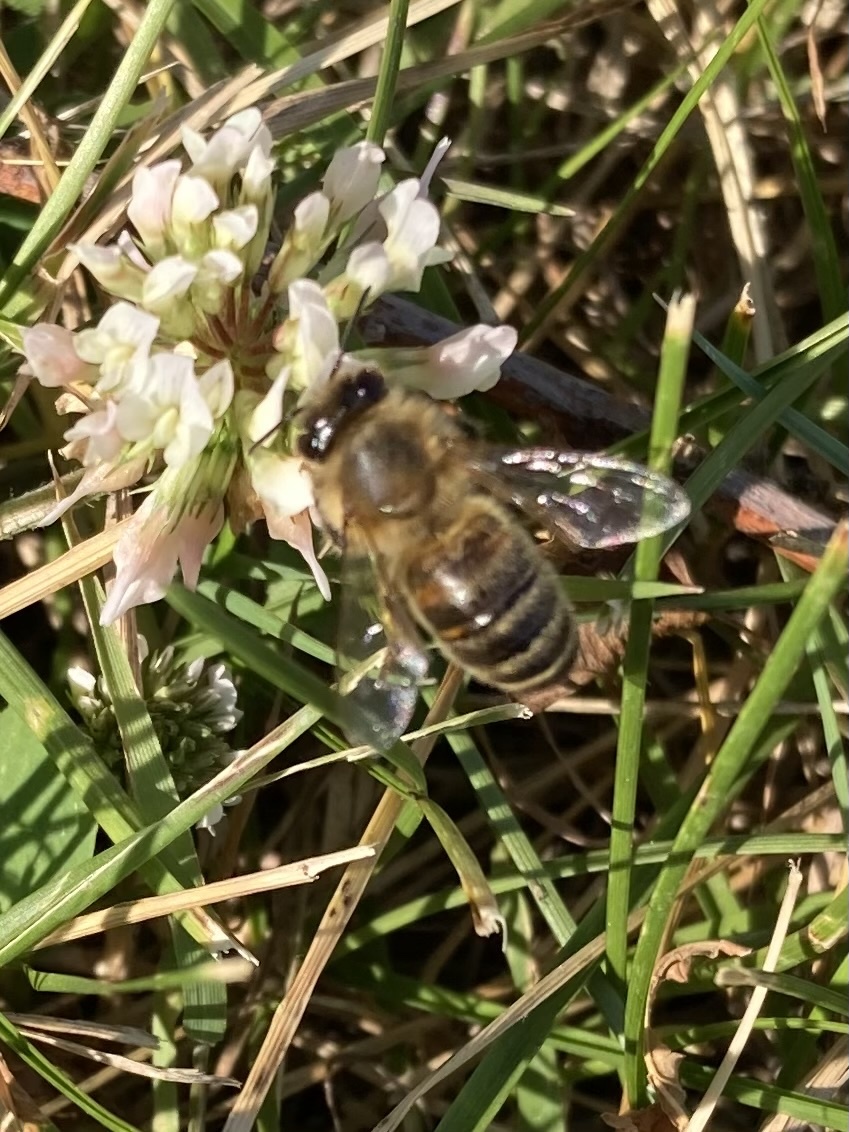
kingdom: Animalia
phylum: Arthropoda
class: Insecta
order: Hymenoptera
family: Apidae
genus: Apis
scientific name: Apis mellifera
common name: Honey bee
